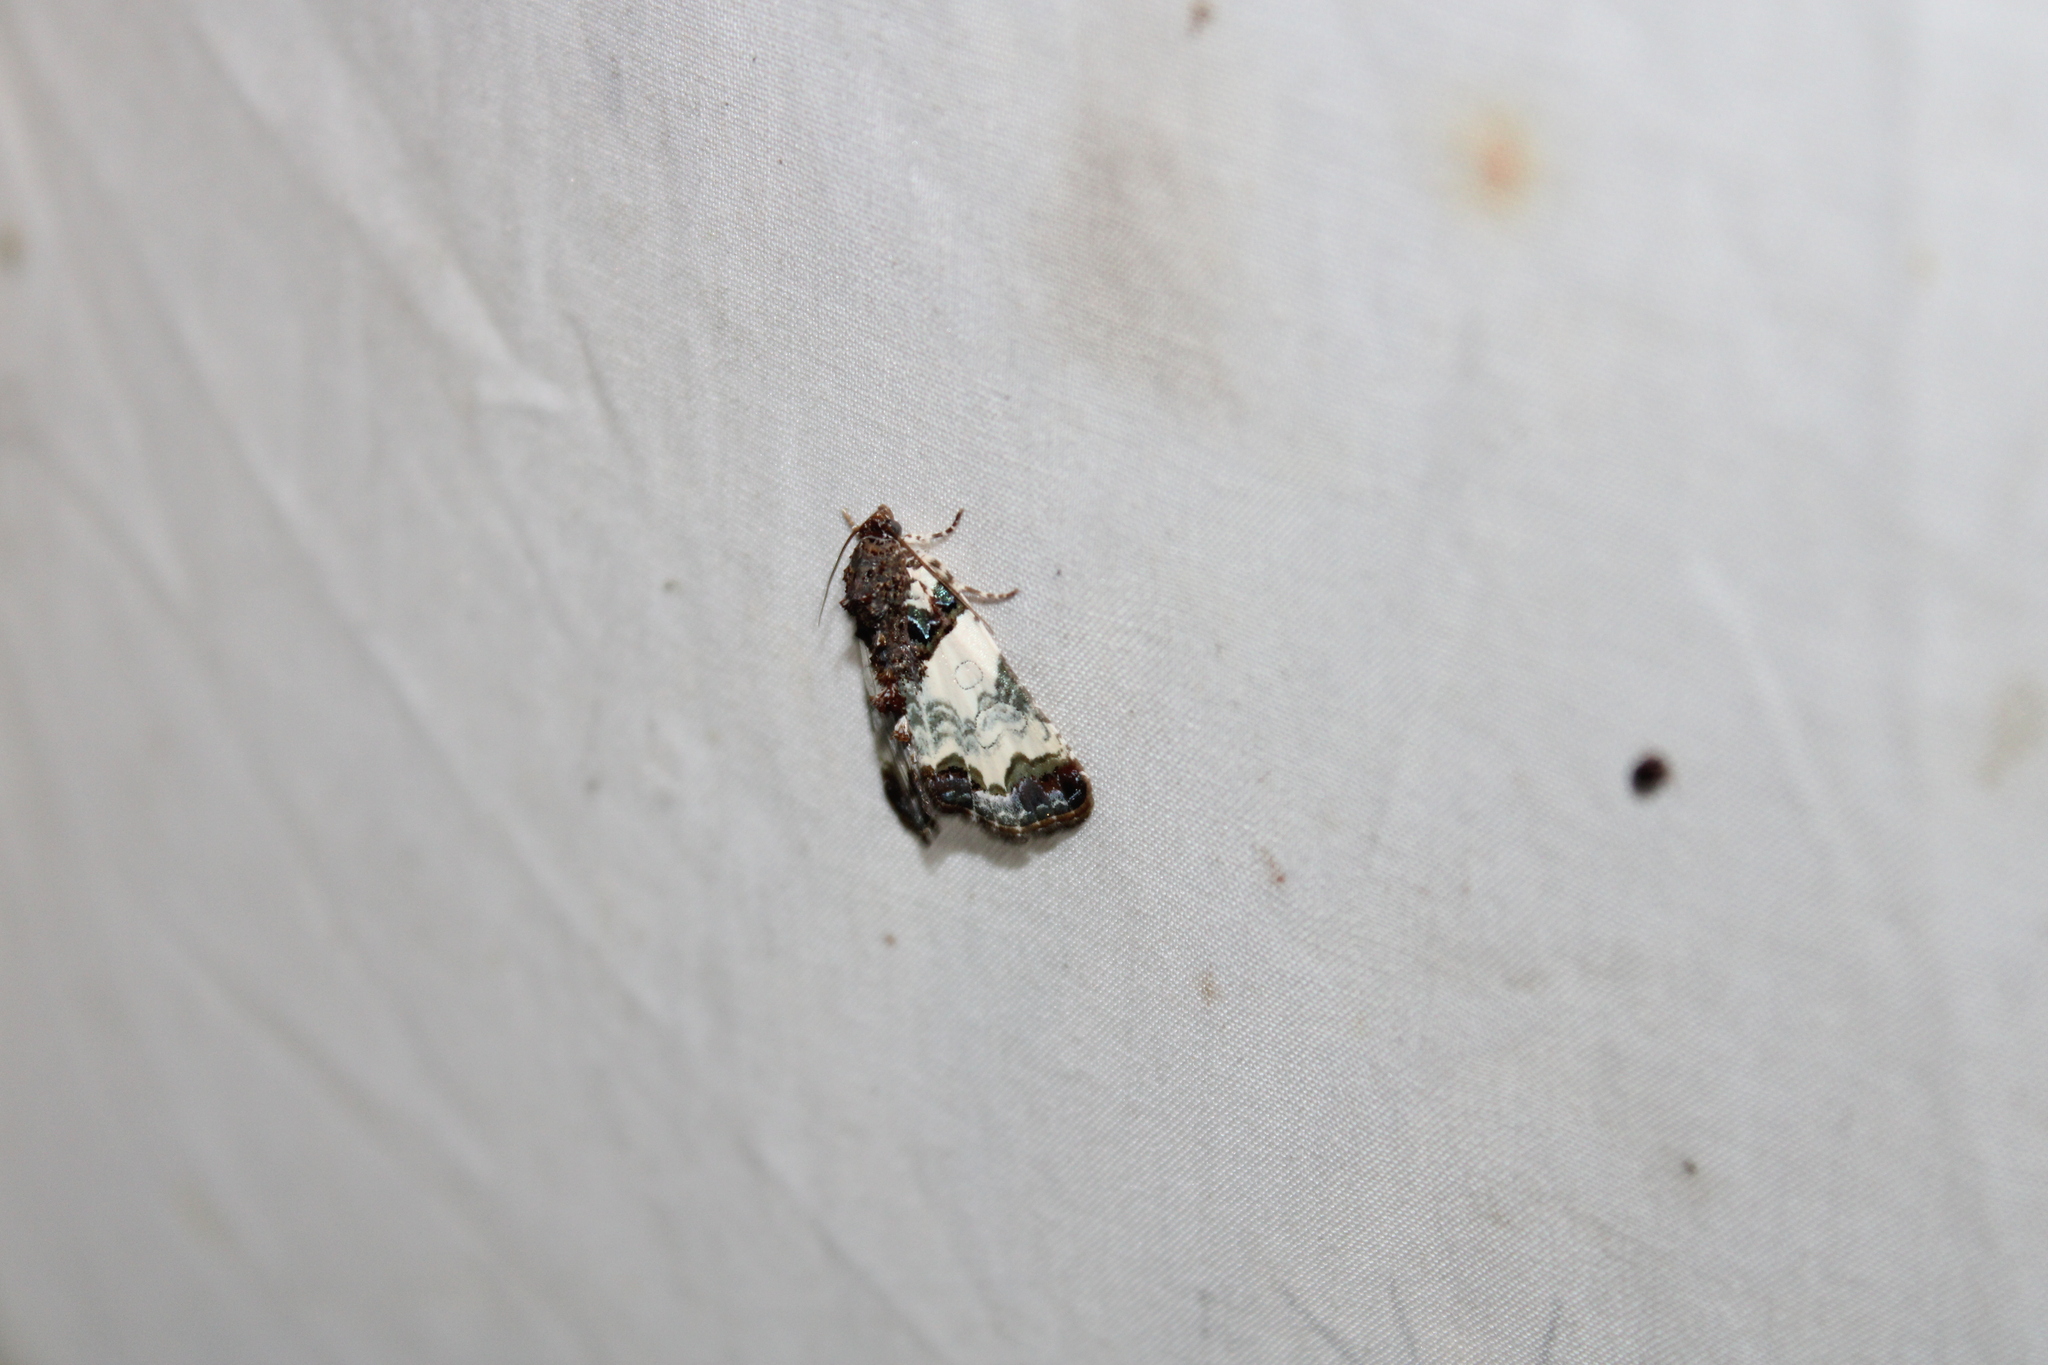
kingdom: Animalia
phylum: Arthropoda
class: Insecta
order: Lepidoptera
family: Noctuidae
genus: Cerma
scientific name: Cerma cerintha
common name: Tufted bird-dropping moth
